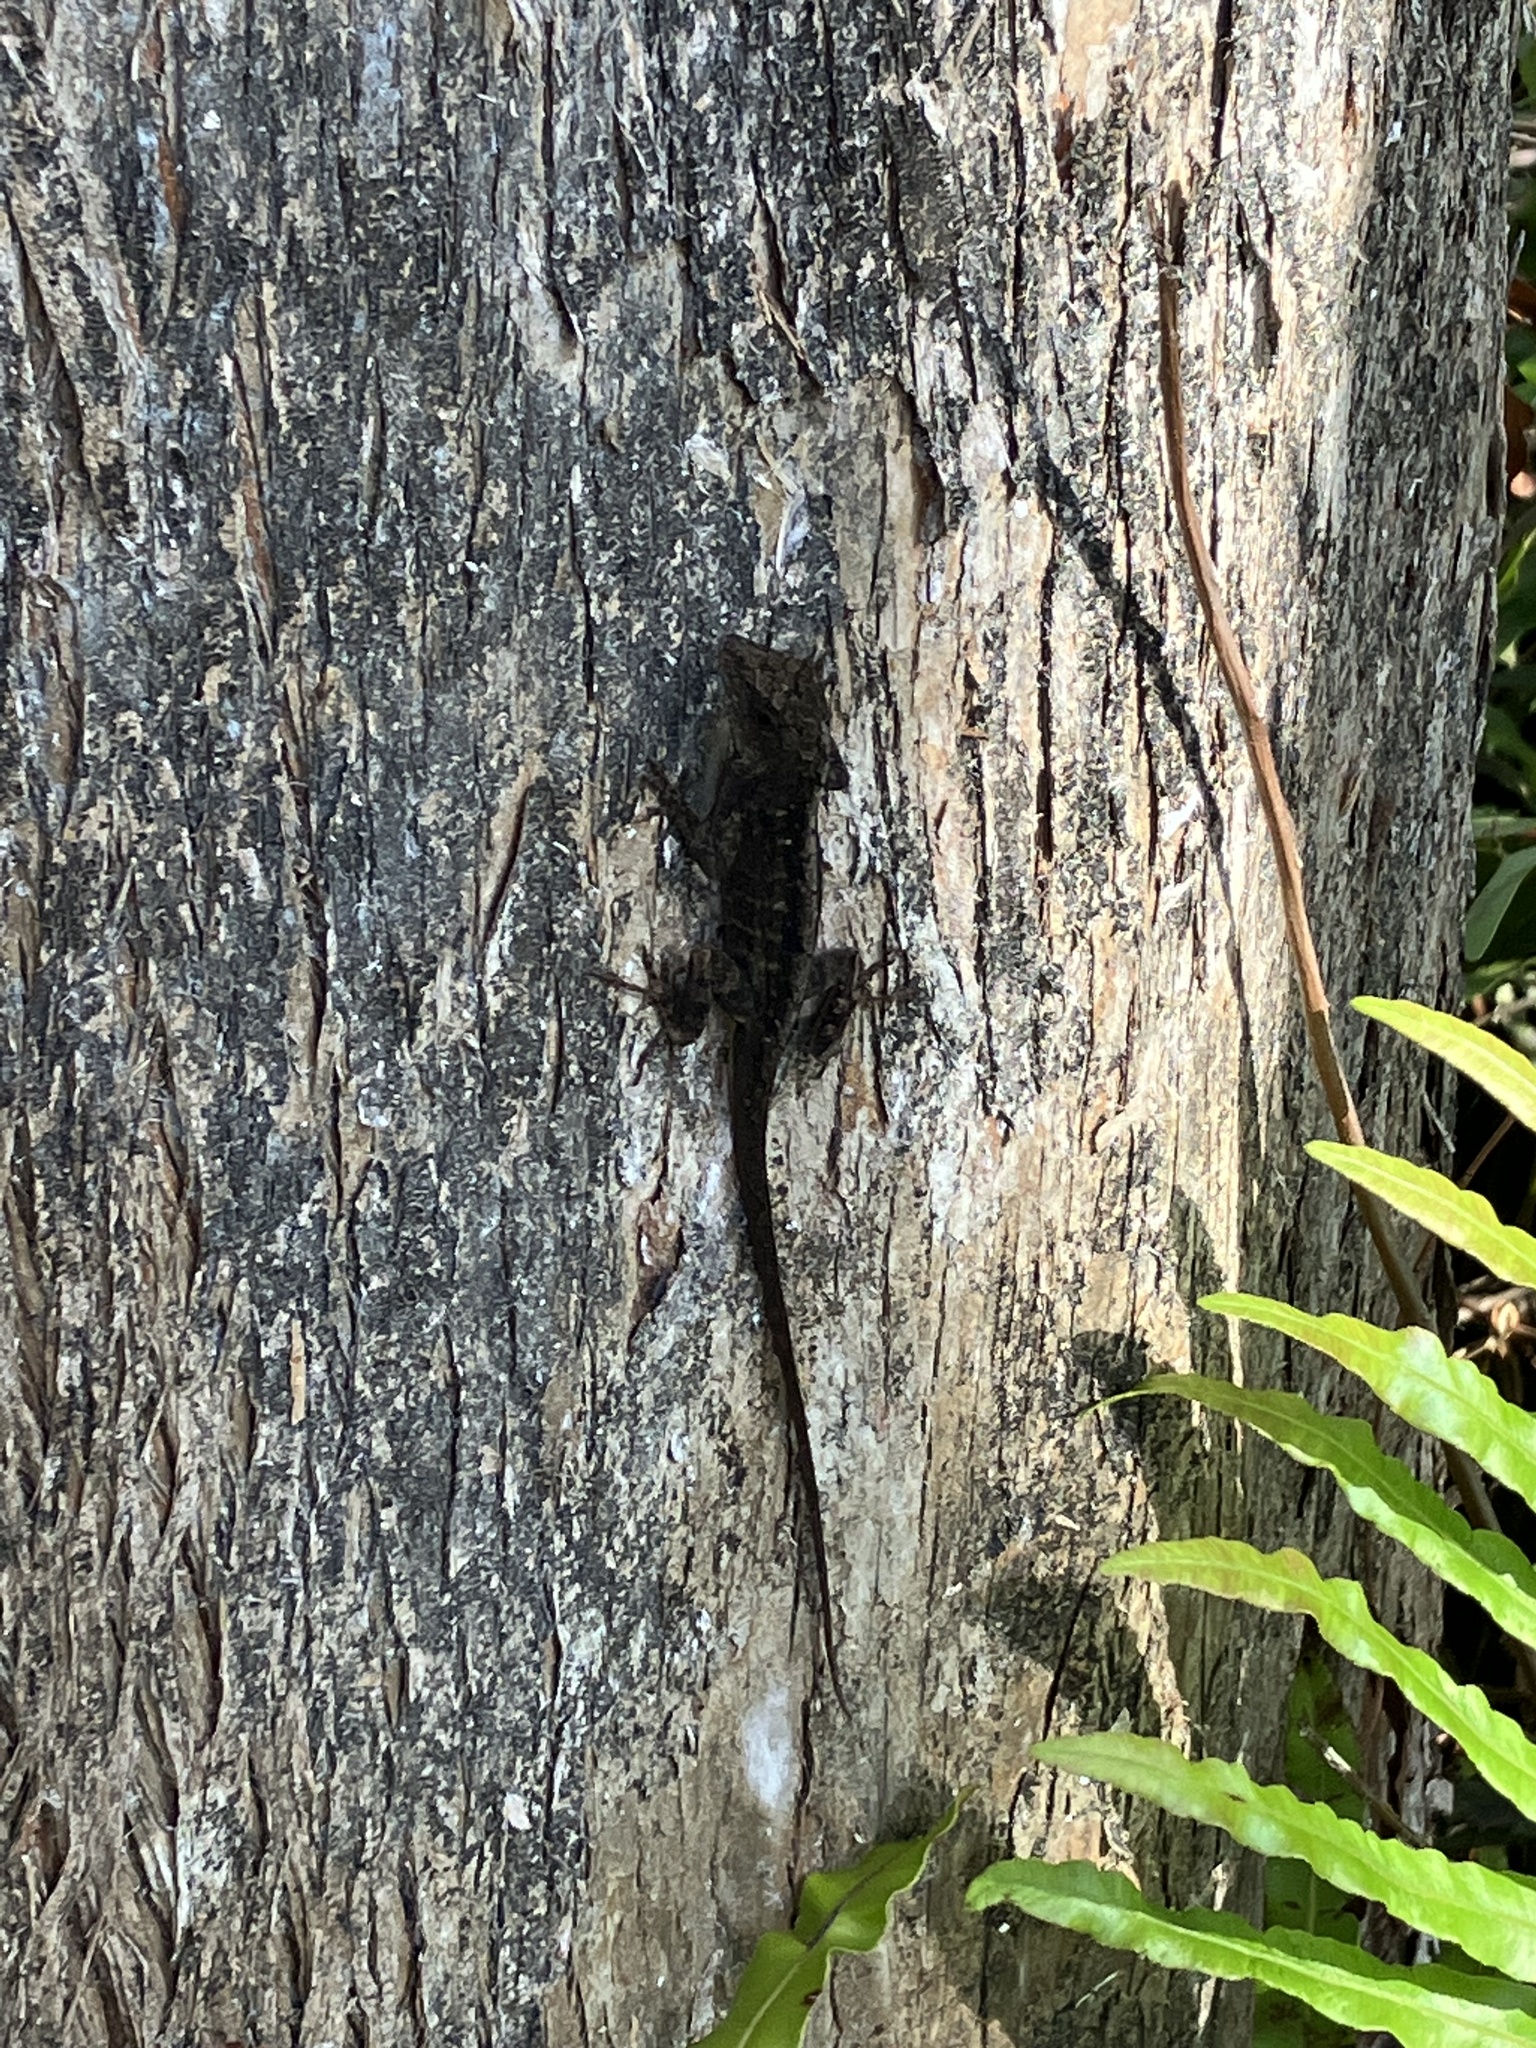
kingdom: Animalia
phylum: Chordata
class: Squamata
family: Dactyloidae
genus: Anolis
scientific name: Anolis sagrei
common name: Brown anole
